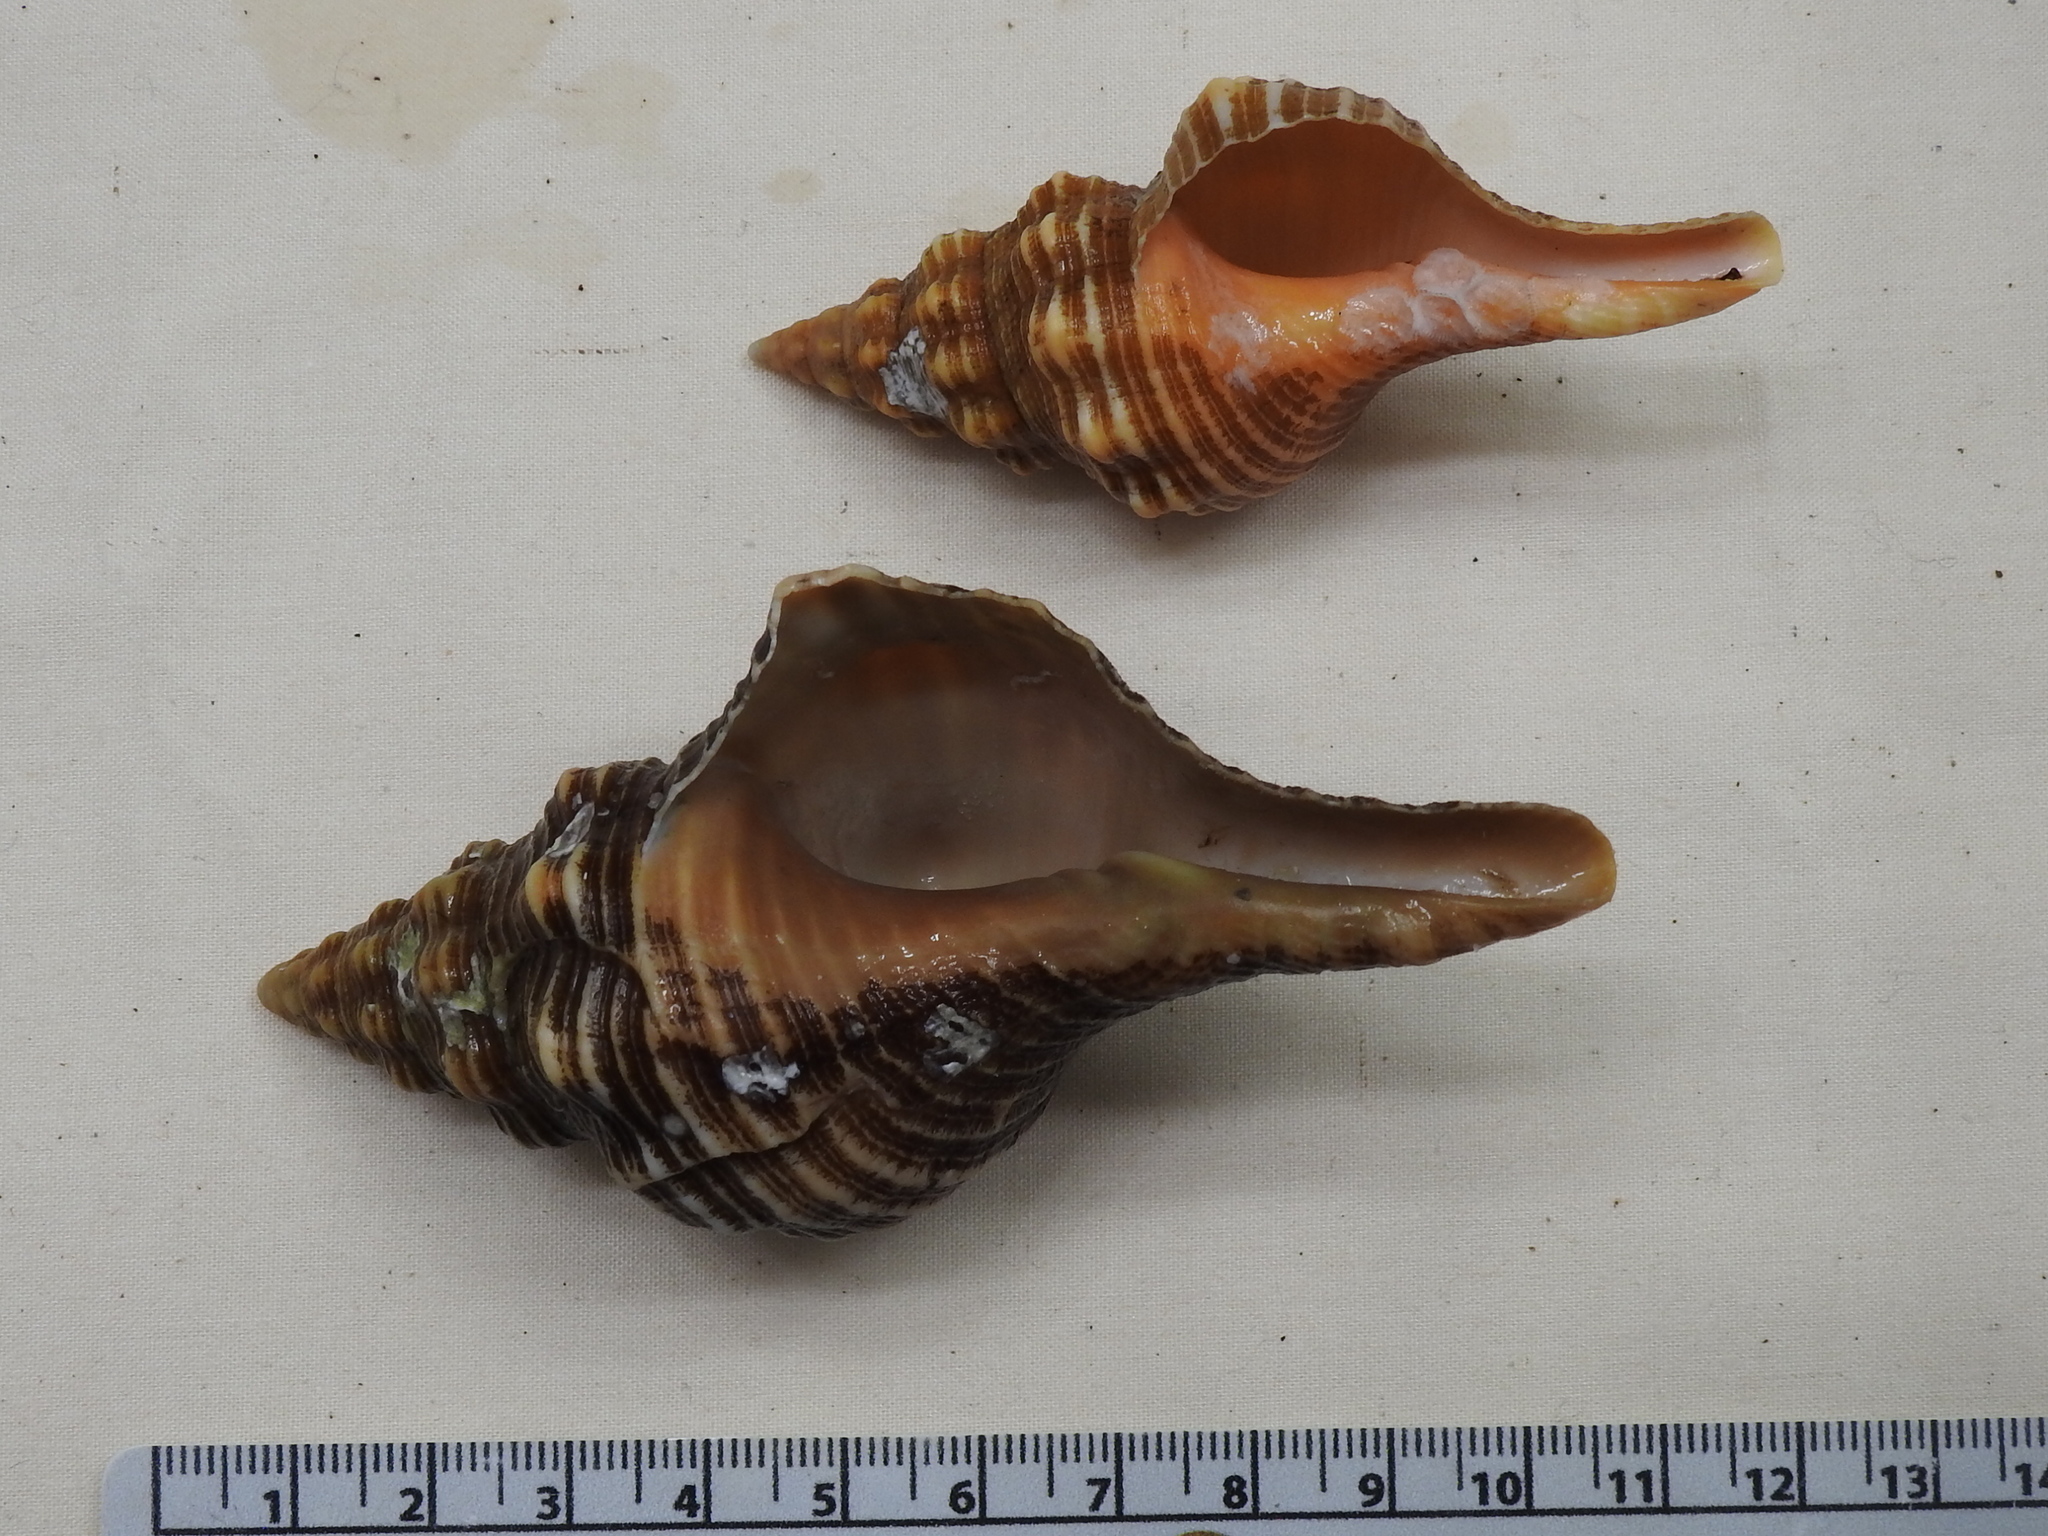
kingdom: Animalia
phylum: Mollusca
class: Gastropoda
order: Neogastropoda
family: Fasciolariidae
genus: Triplofusus
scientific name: Triplofusus giganteus
